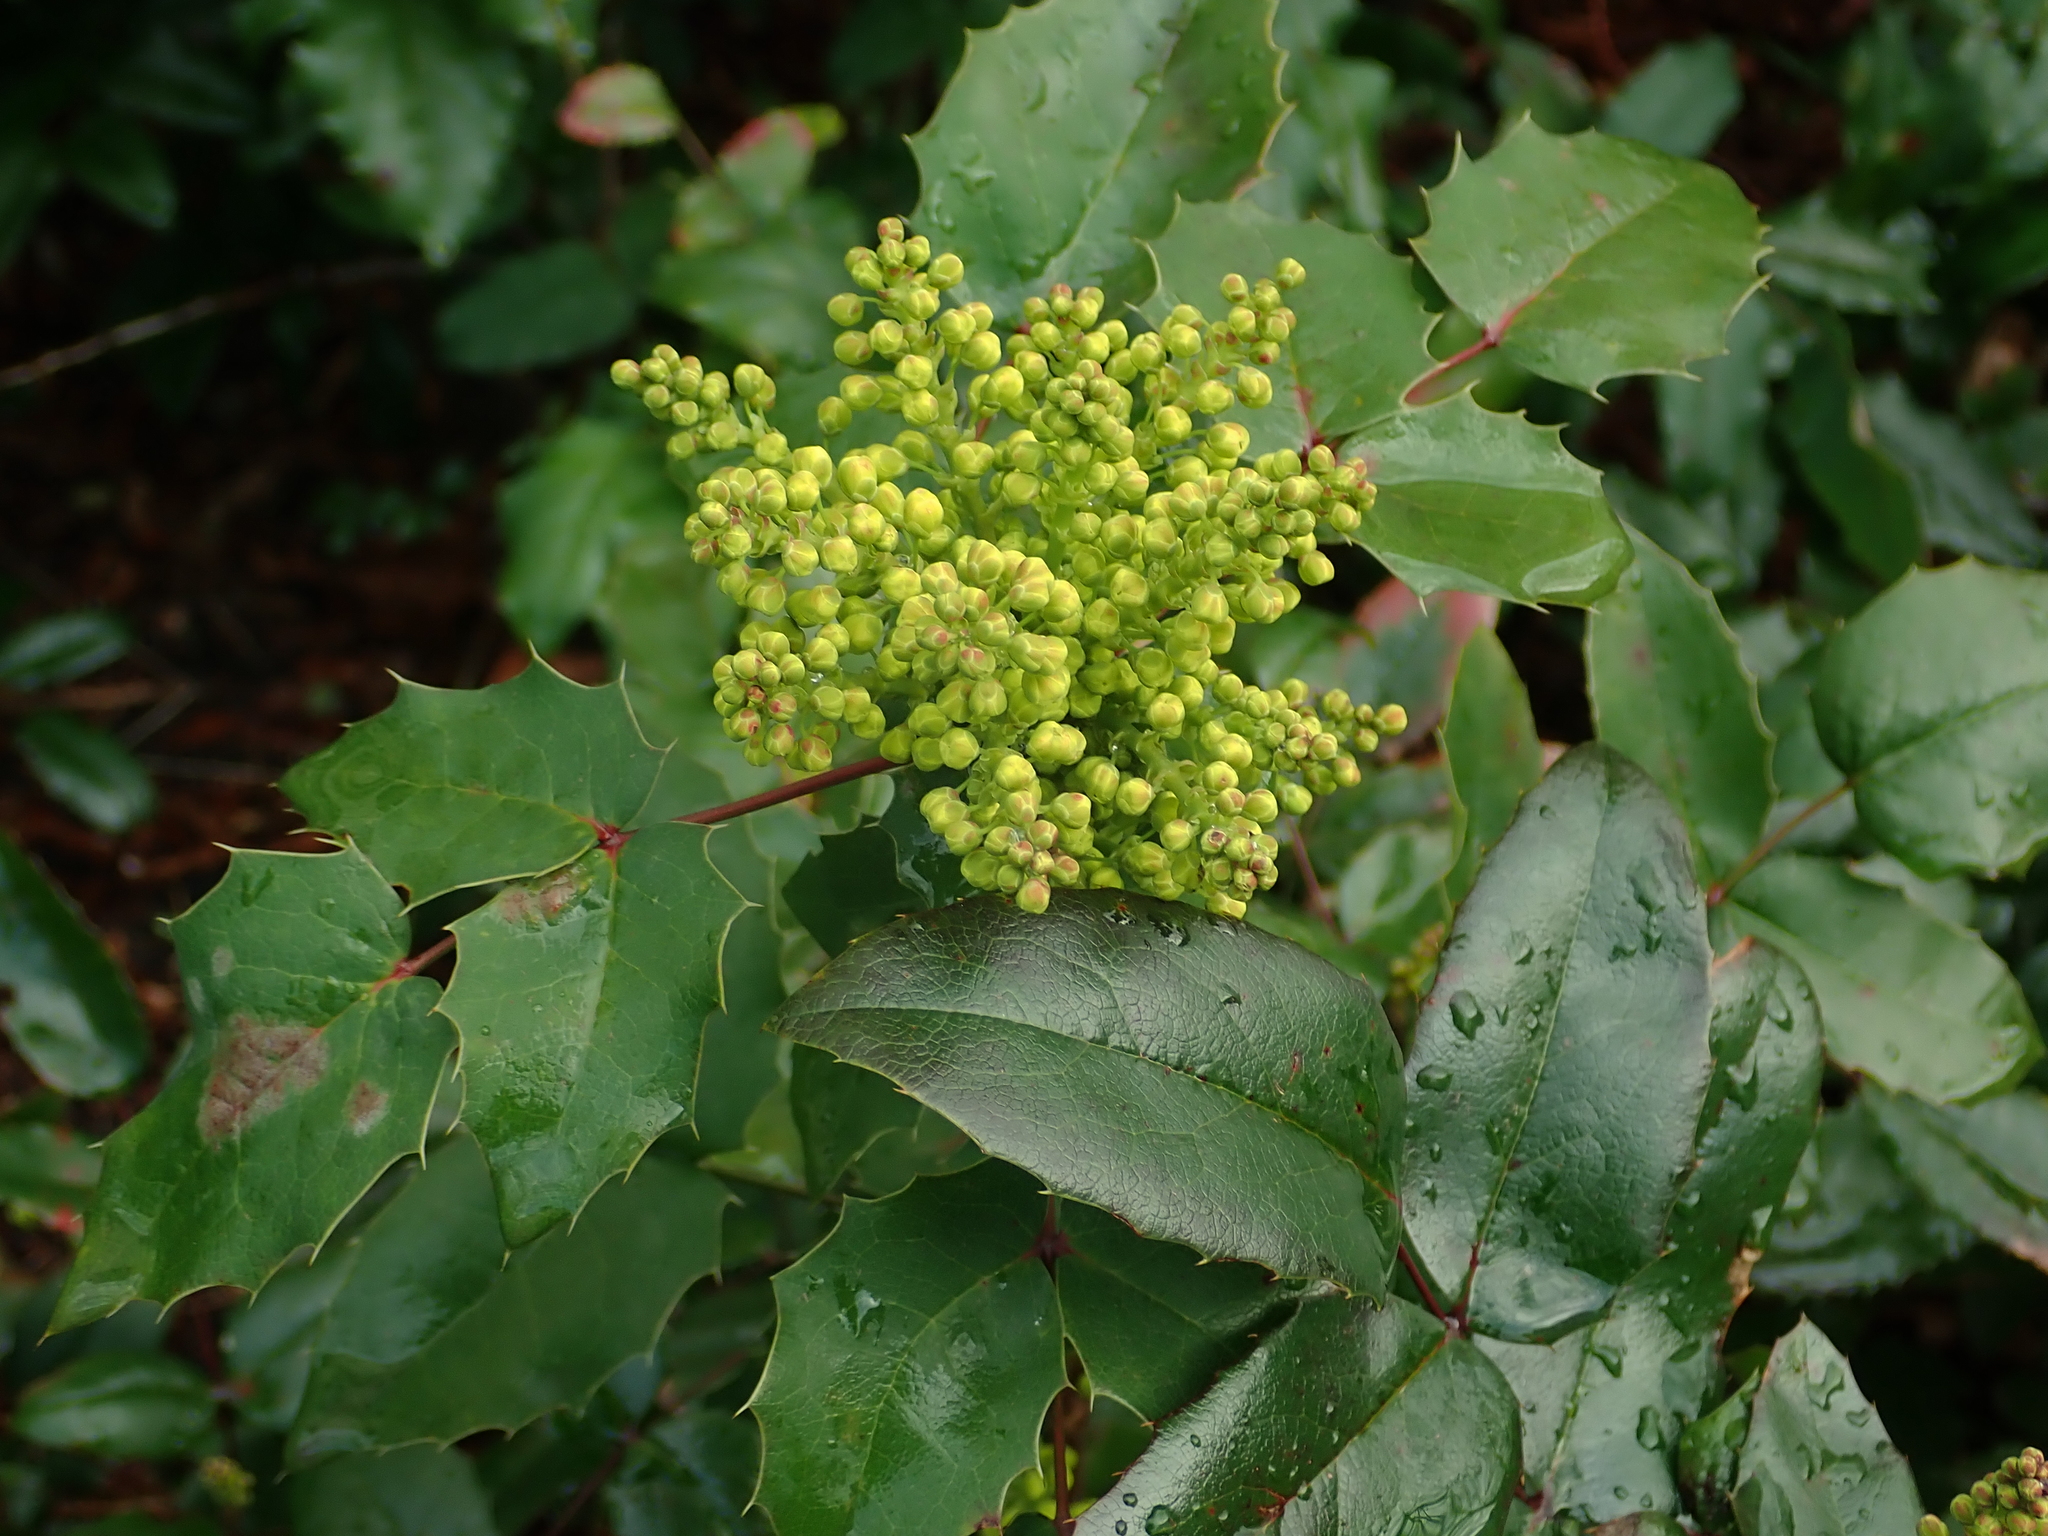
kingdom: Plantae
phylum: Tracheophyta
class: Magnoliopsida
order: Ranunculales
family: Berberidaceae
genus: Mahonia
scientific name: Mahonia aquifolium
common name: Oregon-grape
